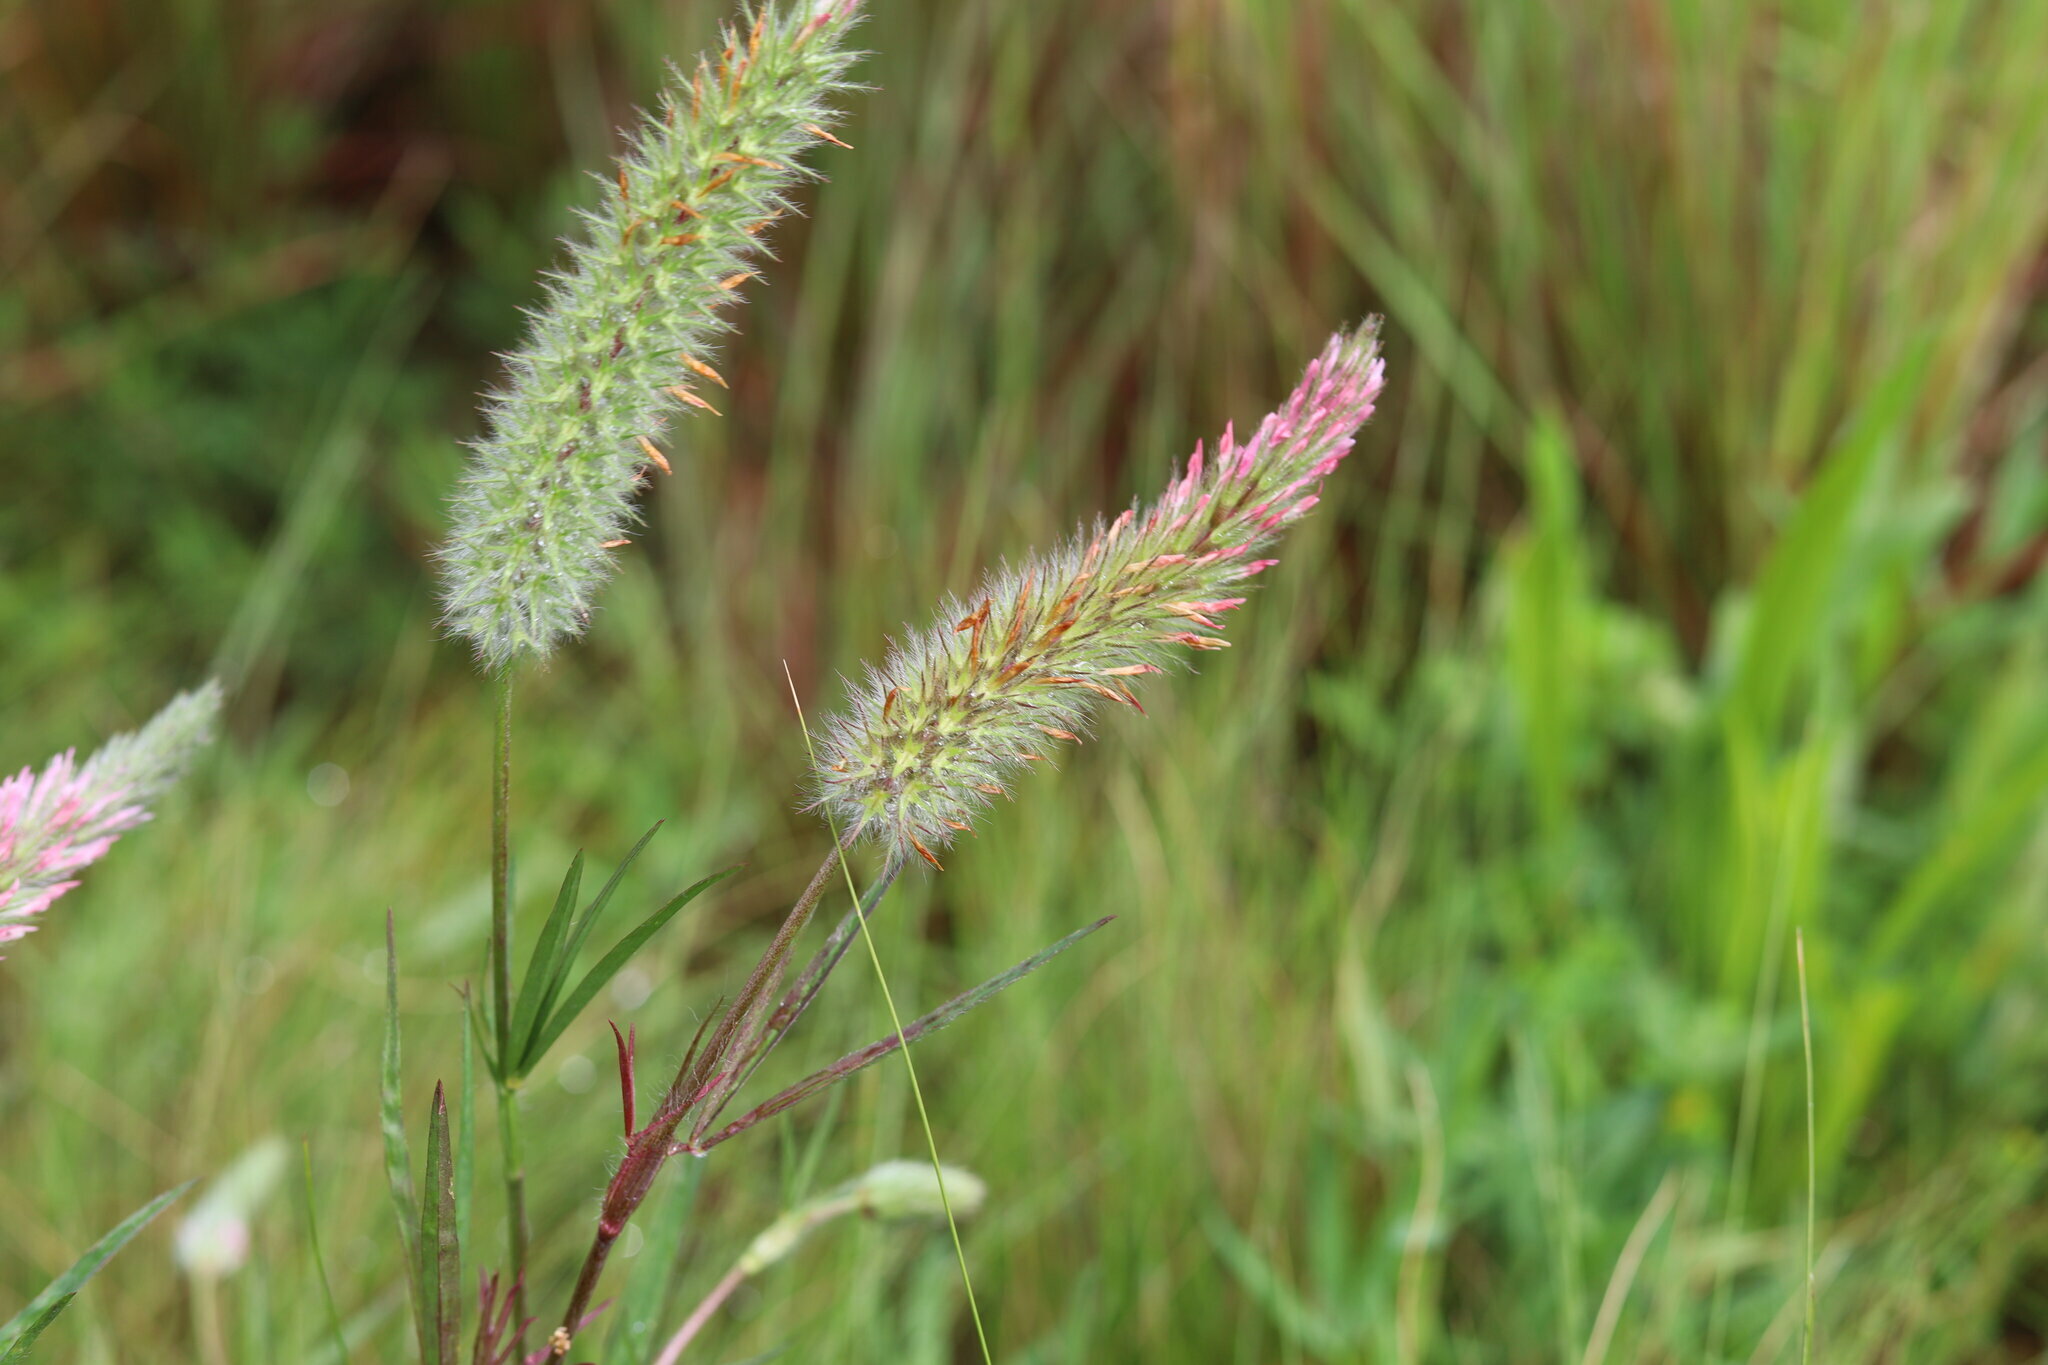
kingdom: Plantae
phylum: Tracheophyta
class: Magnoliopsida
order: Fabales
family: Fabaceae
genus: Trifolium
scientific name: Trifolium angustifolium
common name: Narrow clover
